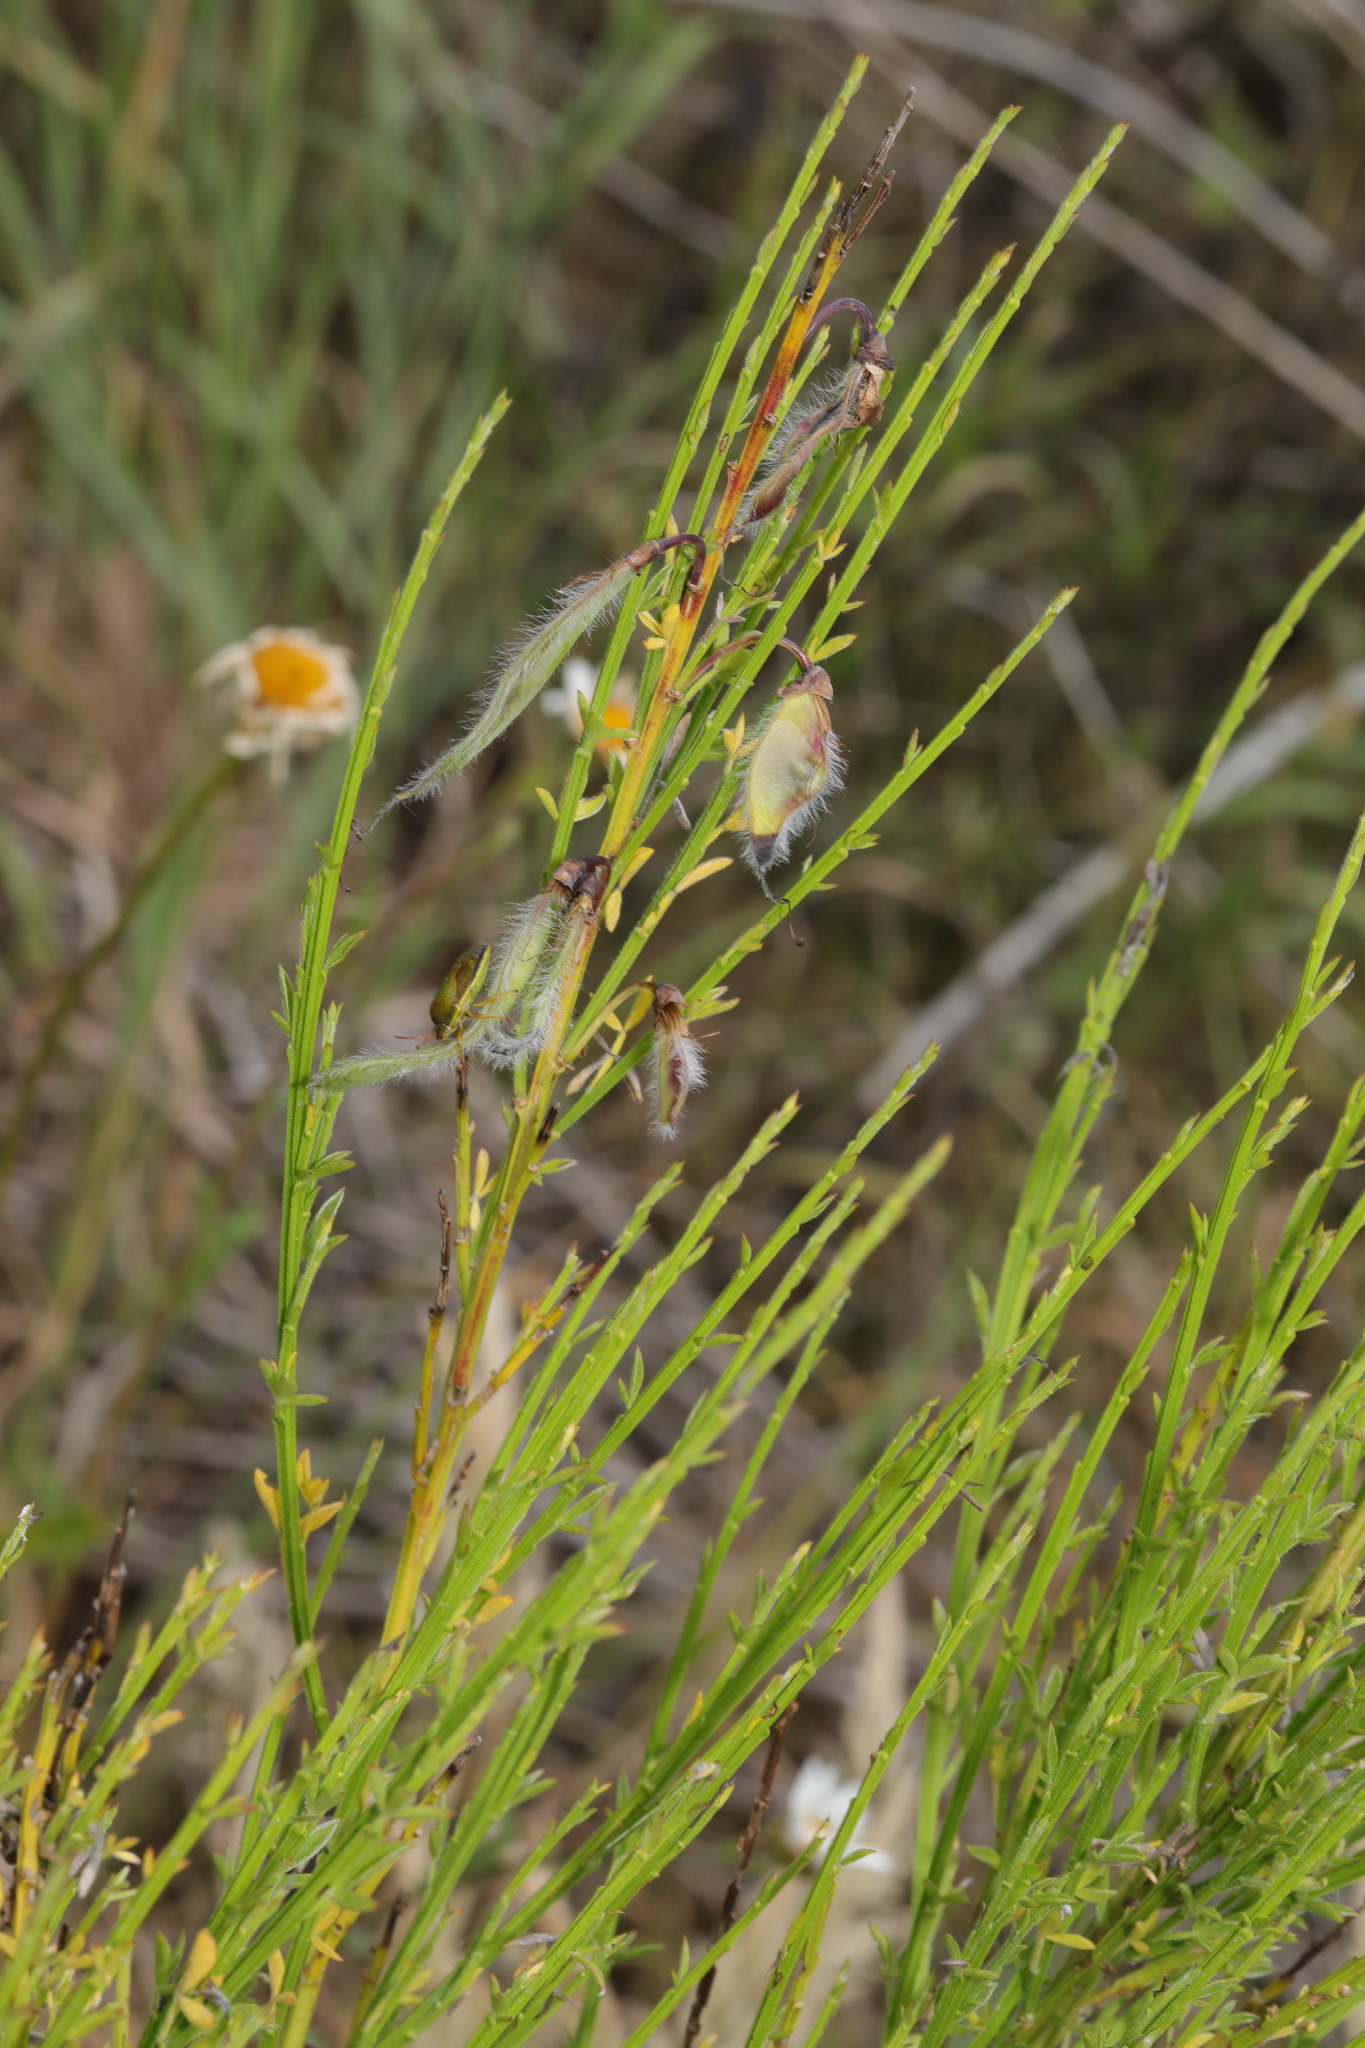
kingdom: Plantae
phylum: Tracheophyta
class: Magnoliopsida
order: Fabales
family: Fabaceae
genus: Cytisus
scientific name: Cytisus scoparius
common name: Scotch broom
